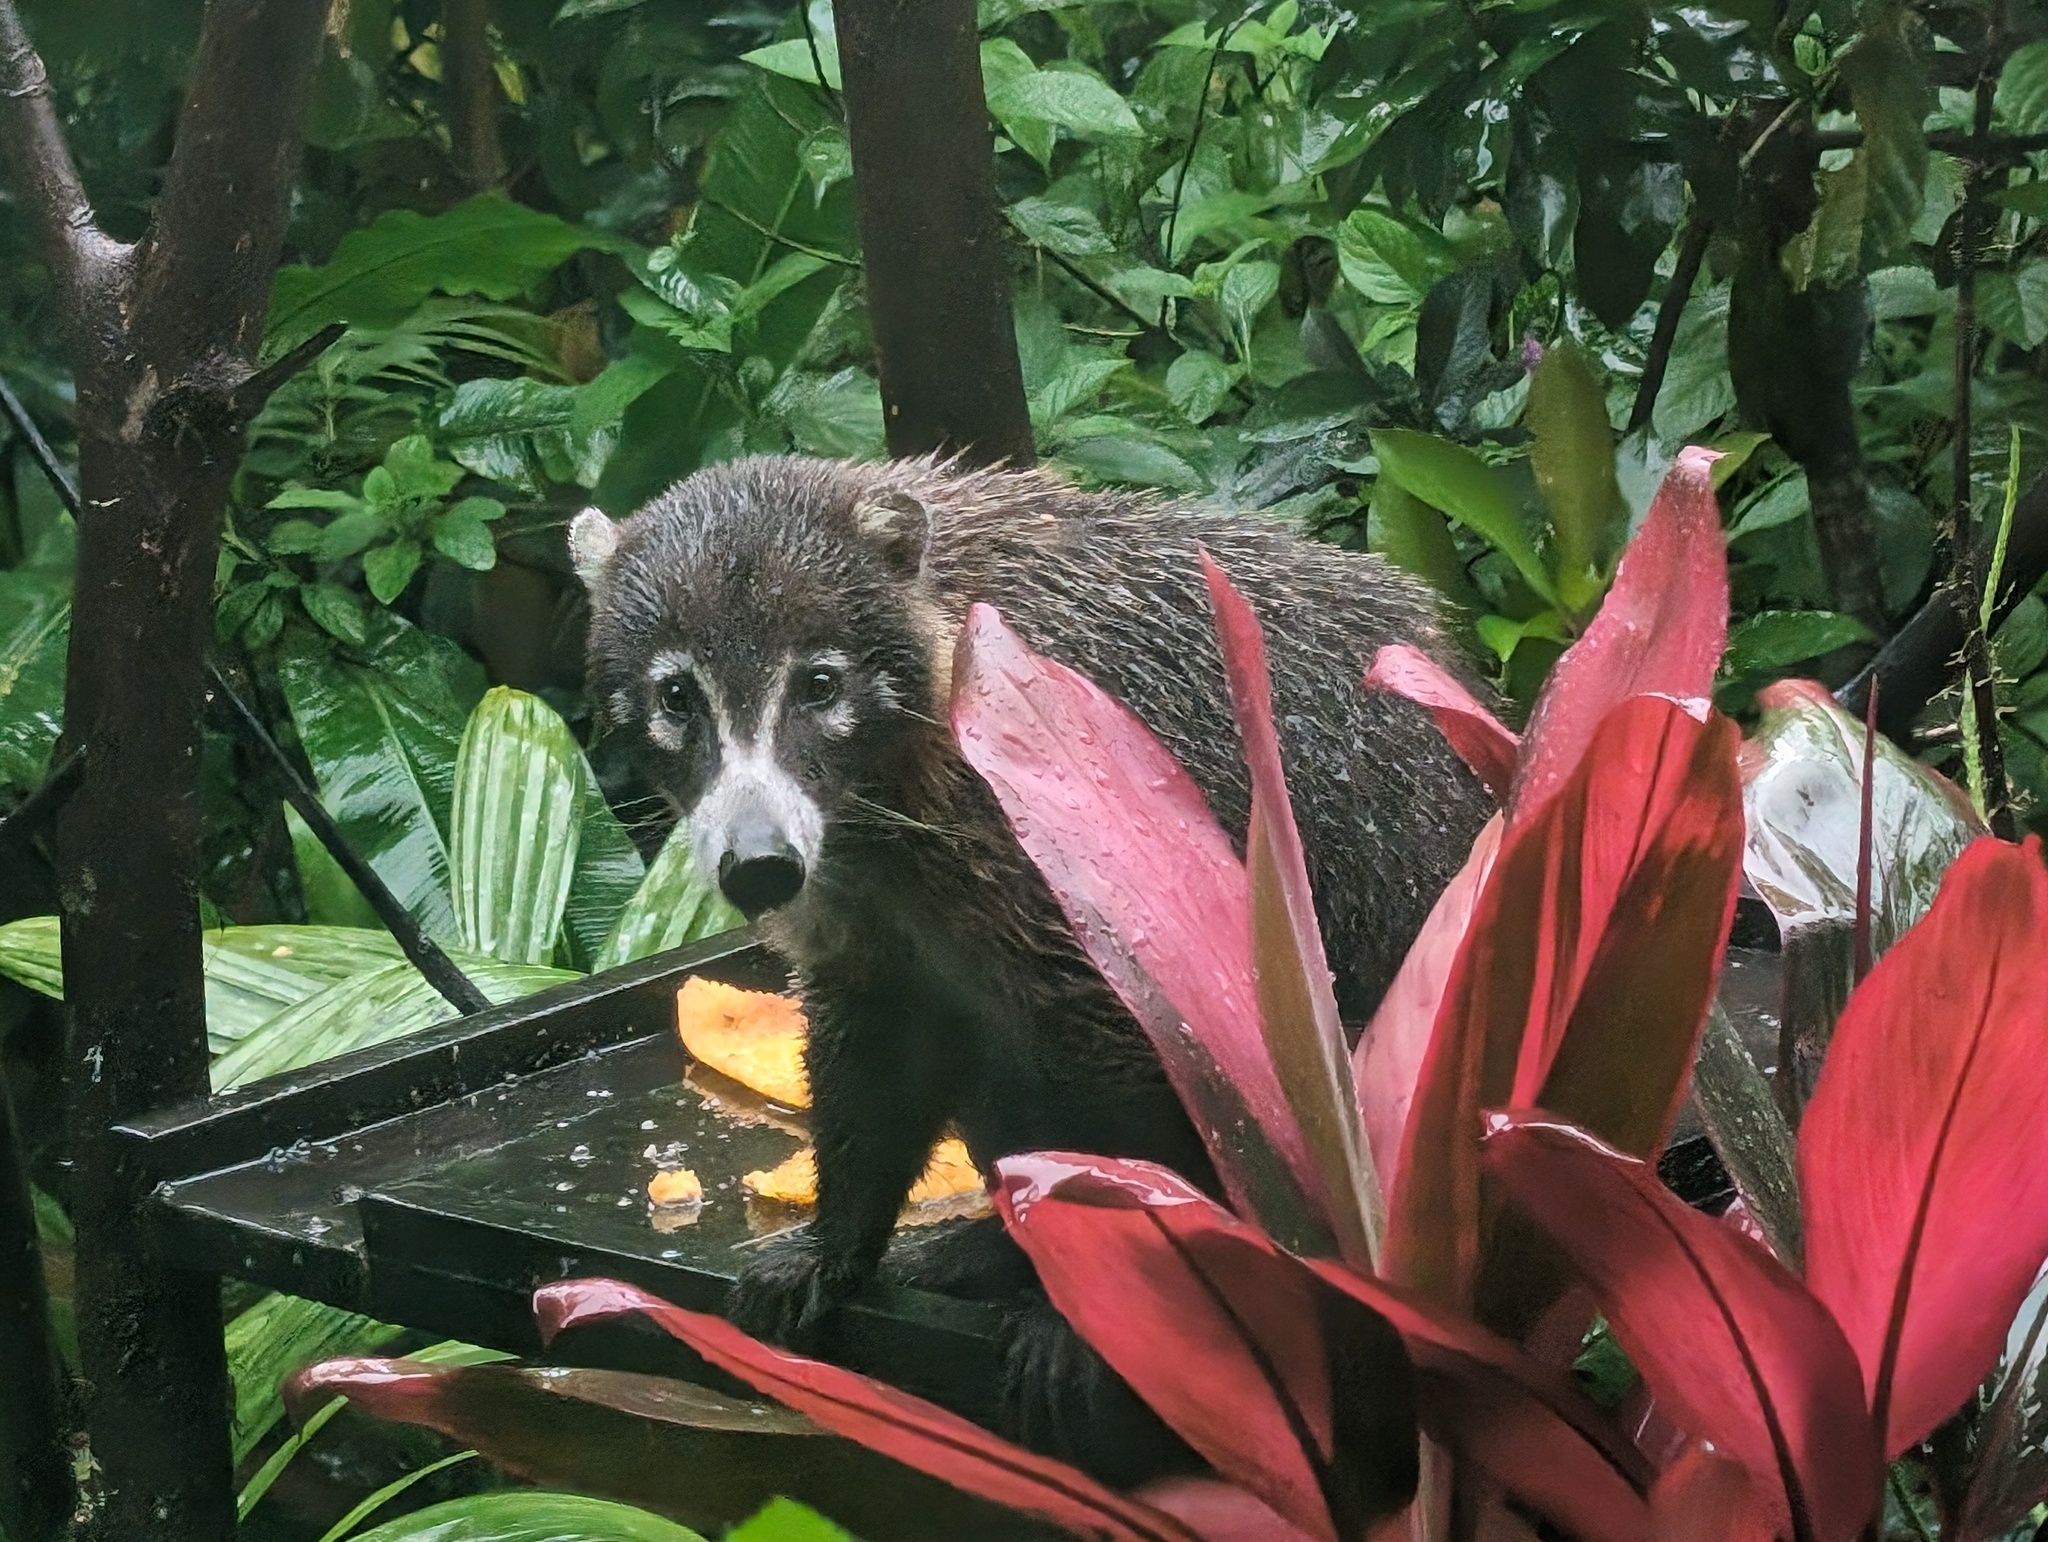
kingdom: Animalia
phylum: Chordata
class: Mammalia
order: Carnivora
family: Procyonidae
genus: Nasua
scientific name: Nasua narica
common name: White-nosed coati
